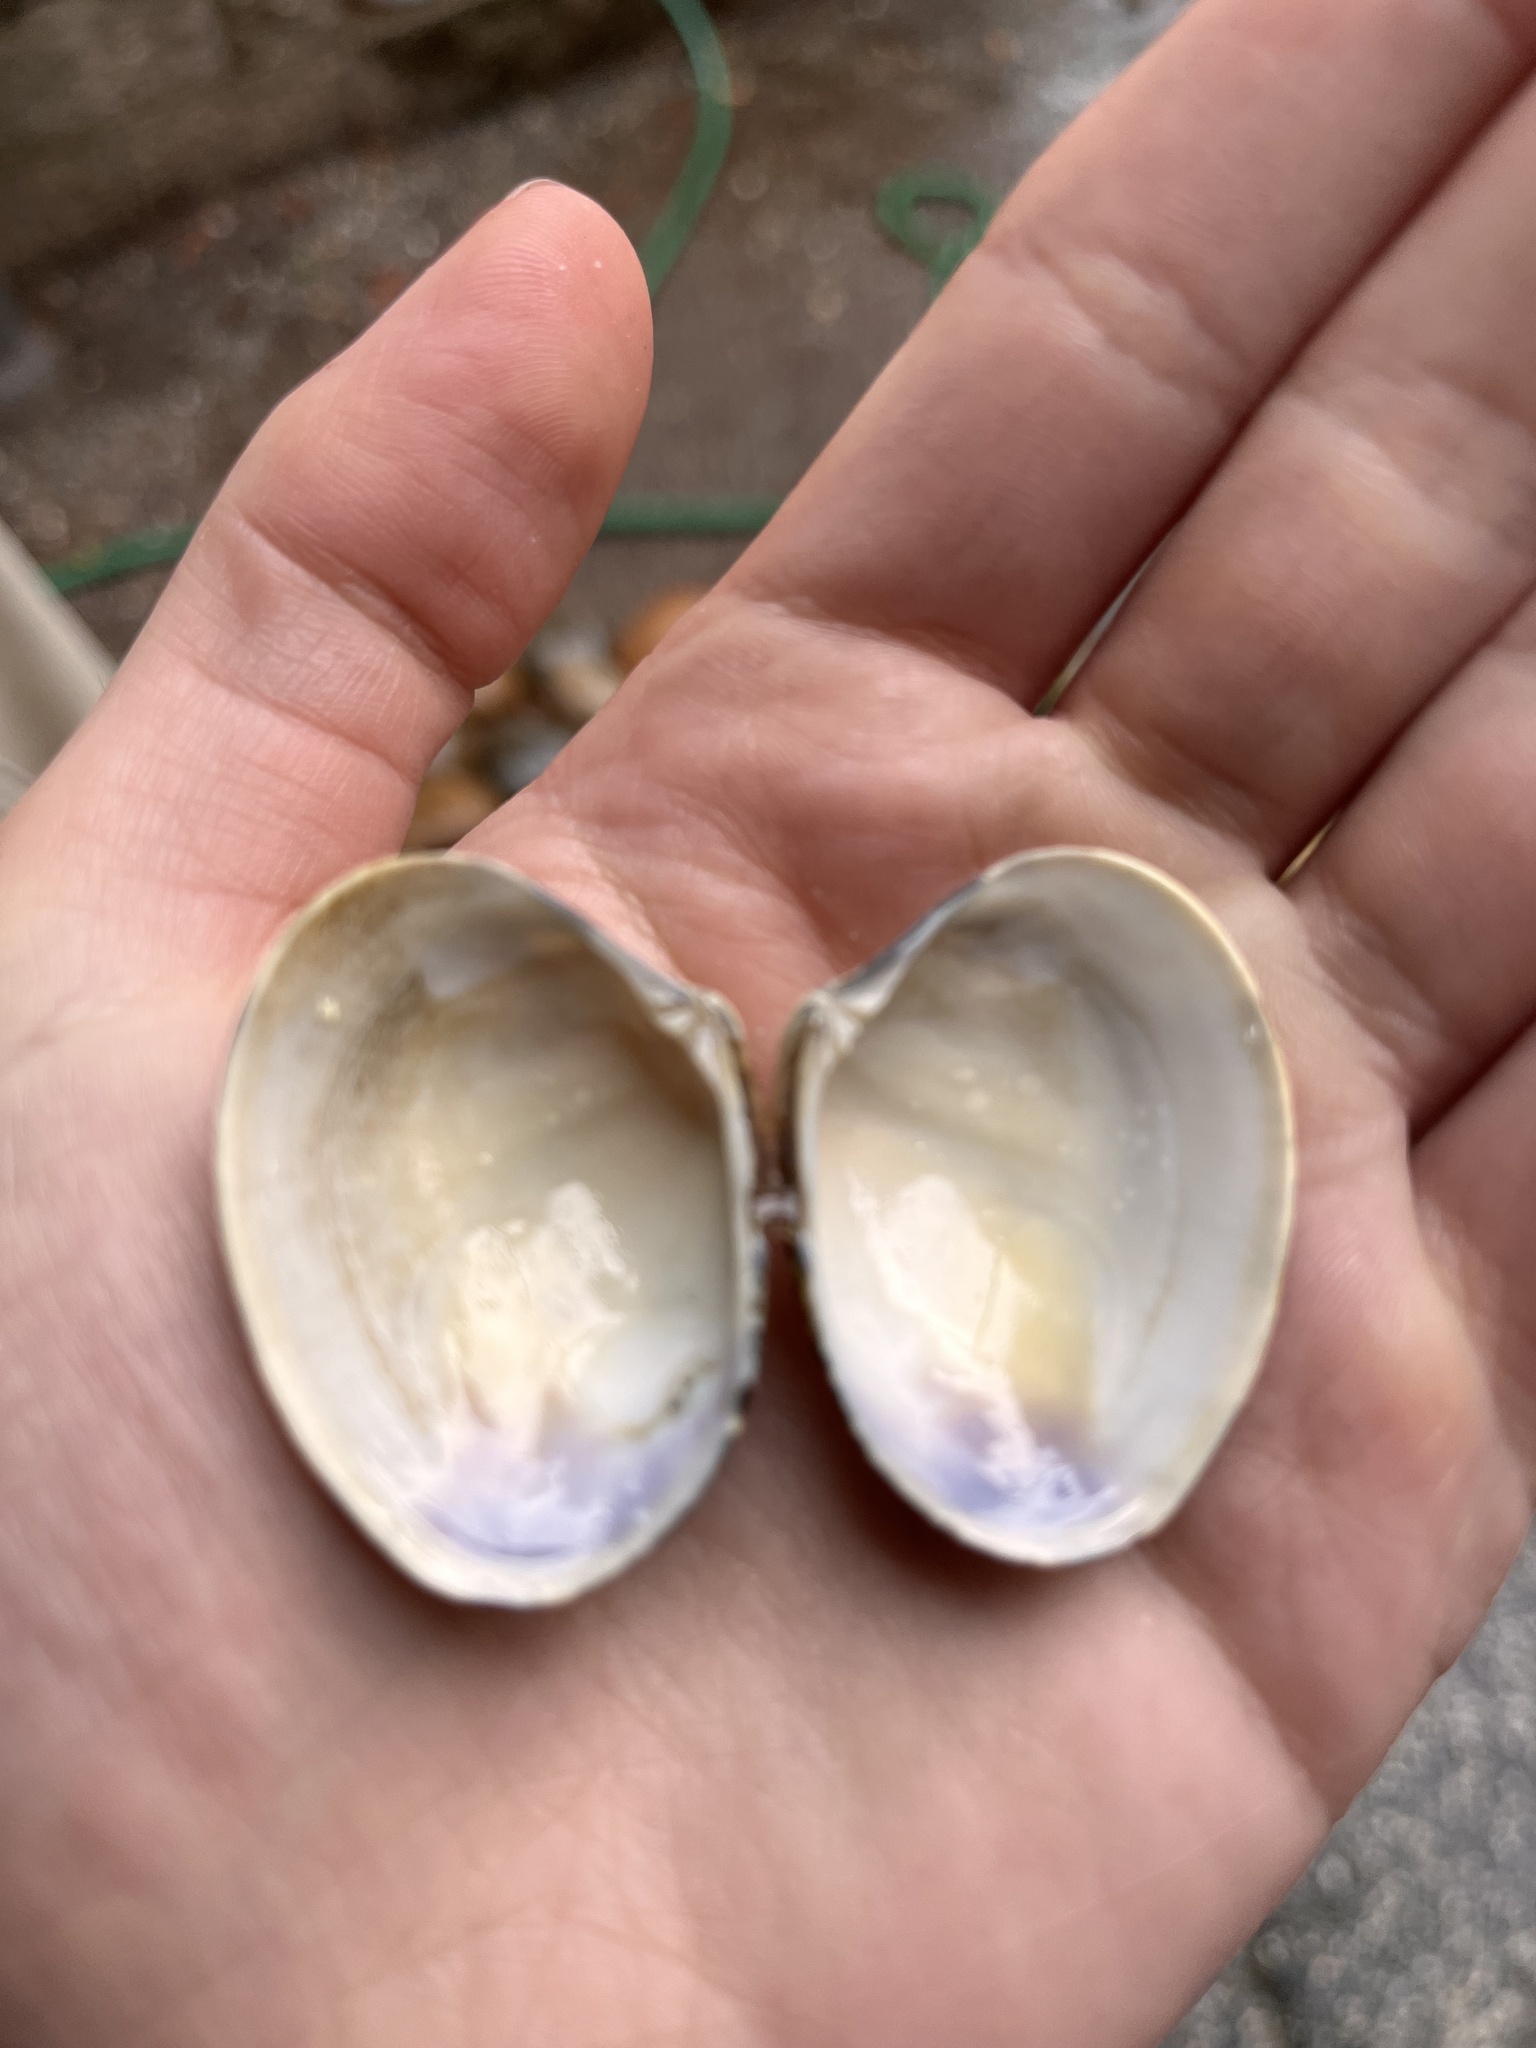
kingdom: Animalia
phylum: Mollusca
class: Bivalvia
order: Venerida
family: Veneridae
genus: Ruditapes
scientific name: Ruditapes philippinarum
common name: Manila clam
